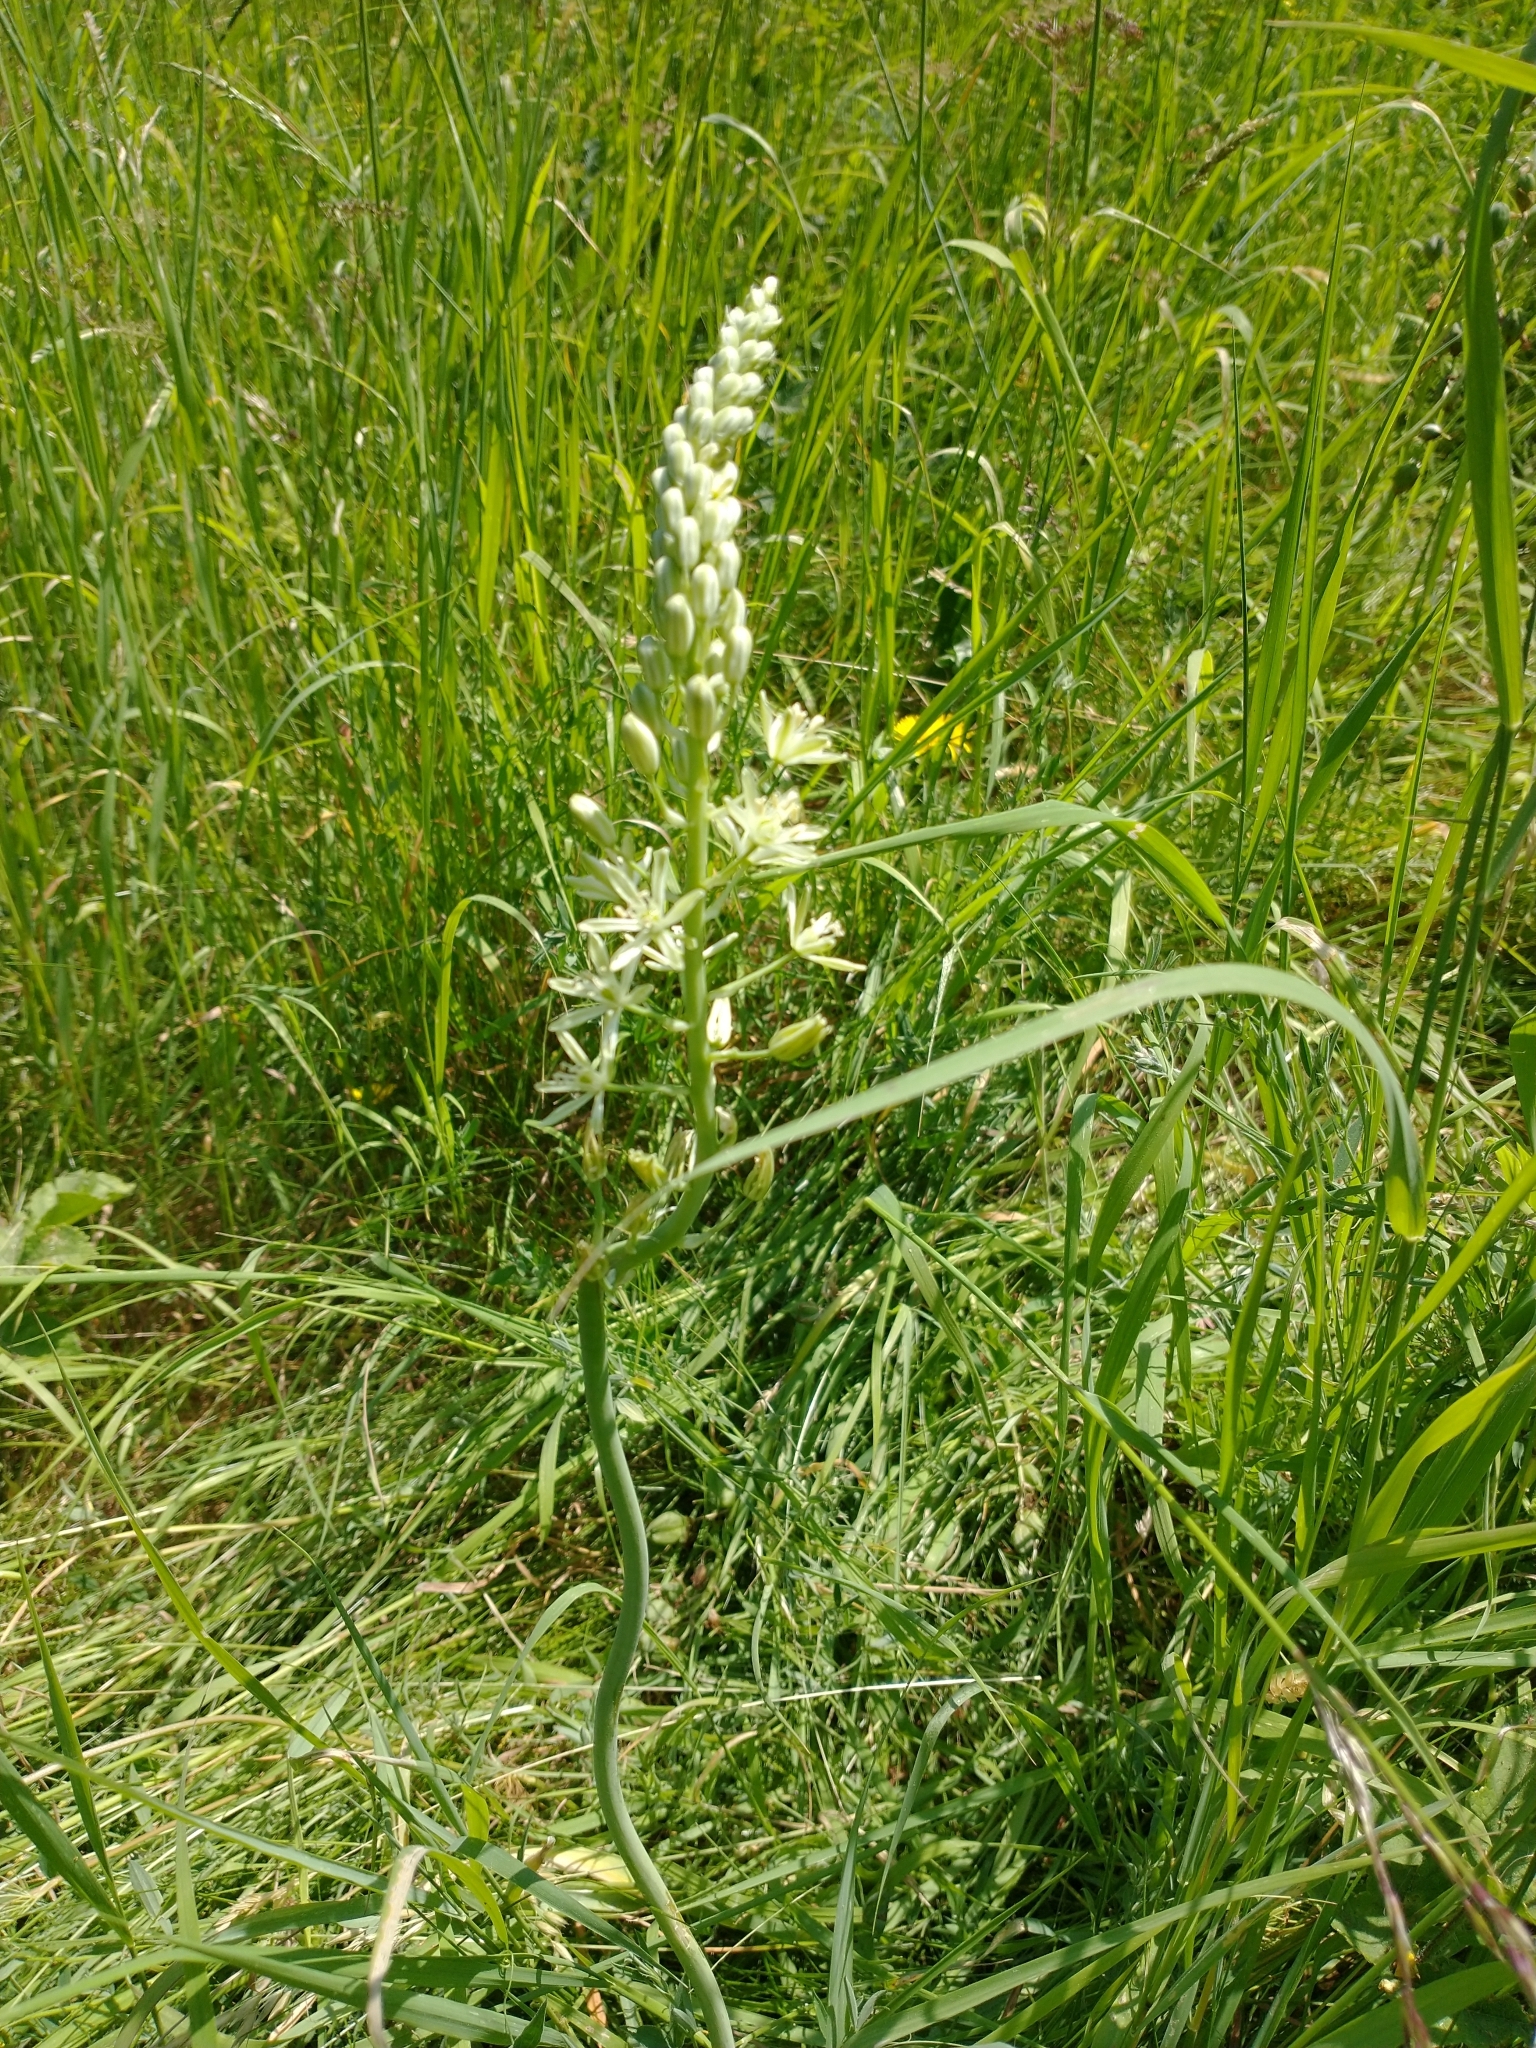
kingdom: Plantae
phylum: Tracheophyta
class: Liliopsida
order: Asparagales
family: Asparagaceae
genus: Ornithogalum
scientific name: Ornithogalum pyrenaicum
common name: Spiked star-of-bethlehem
